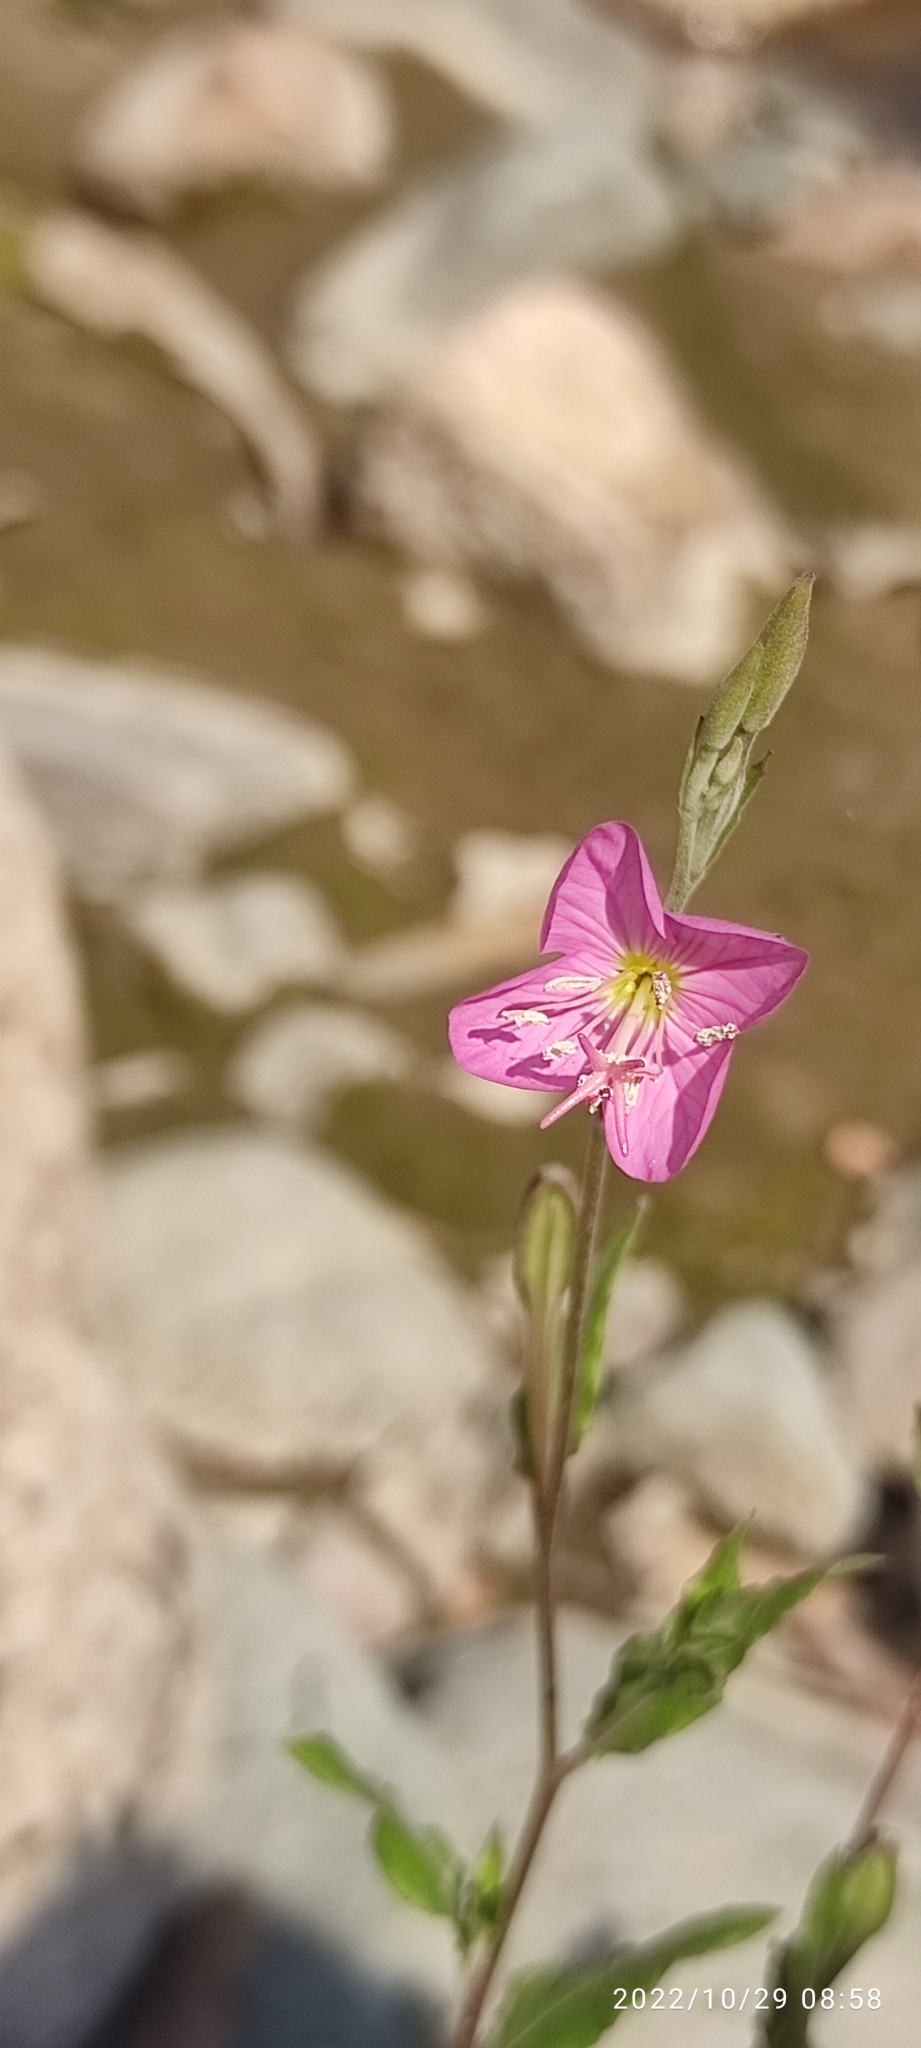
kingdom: Plantae
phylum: Tracheophyta
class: Magnoliopsida
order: Myrtales
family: Onagraceae
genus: Oenothera
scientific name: Oenothera rosea
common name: Rosy evening-primrose
